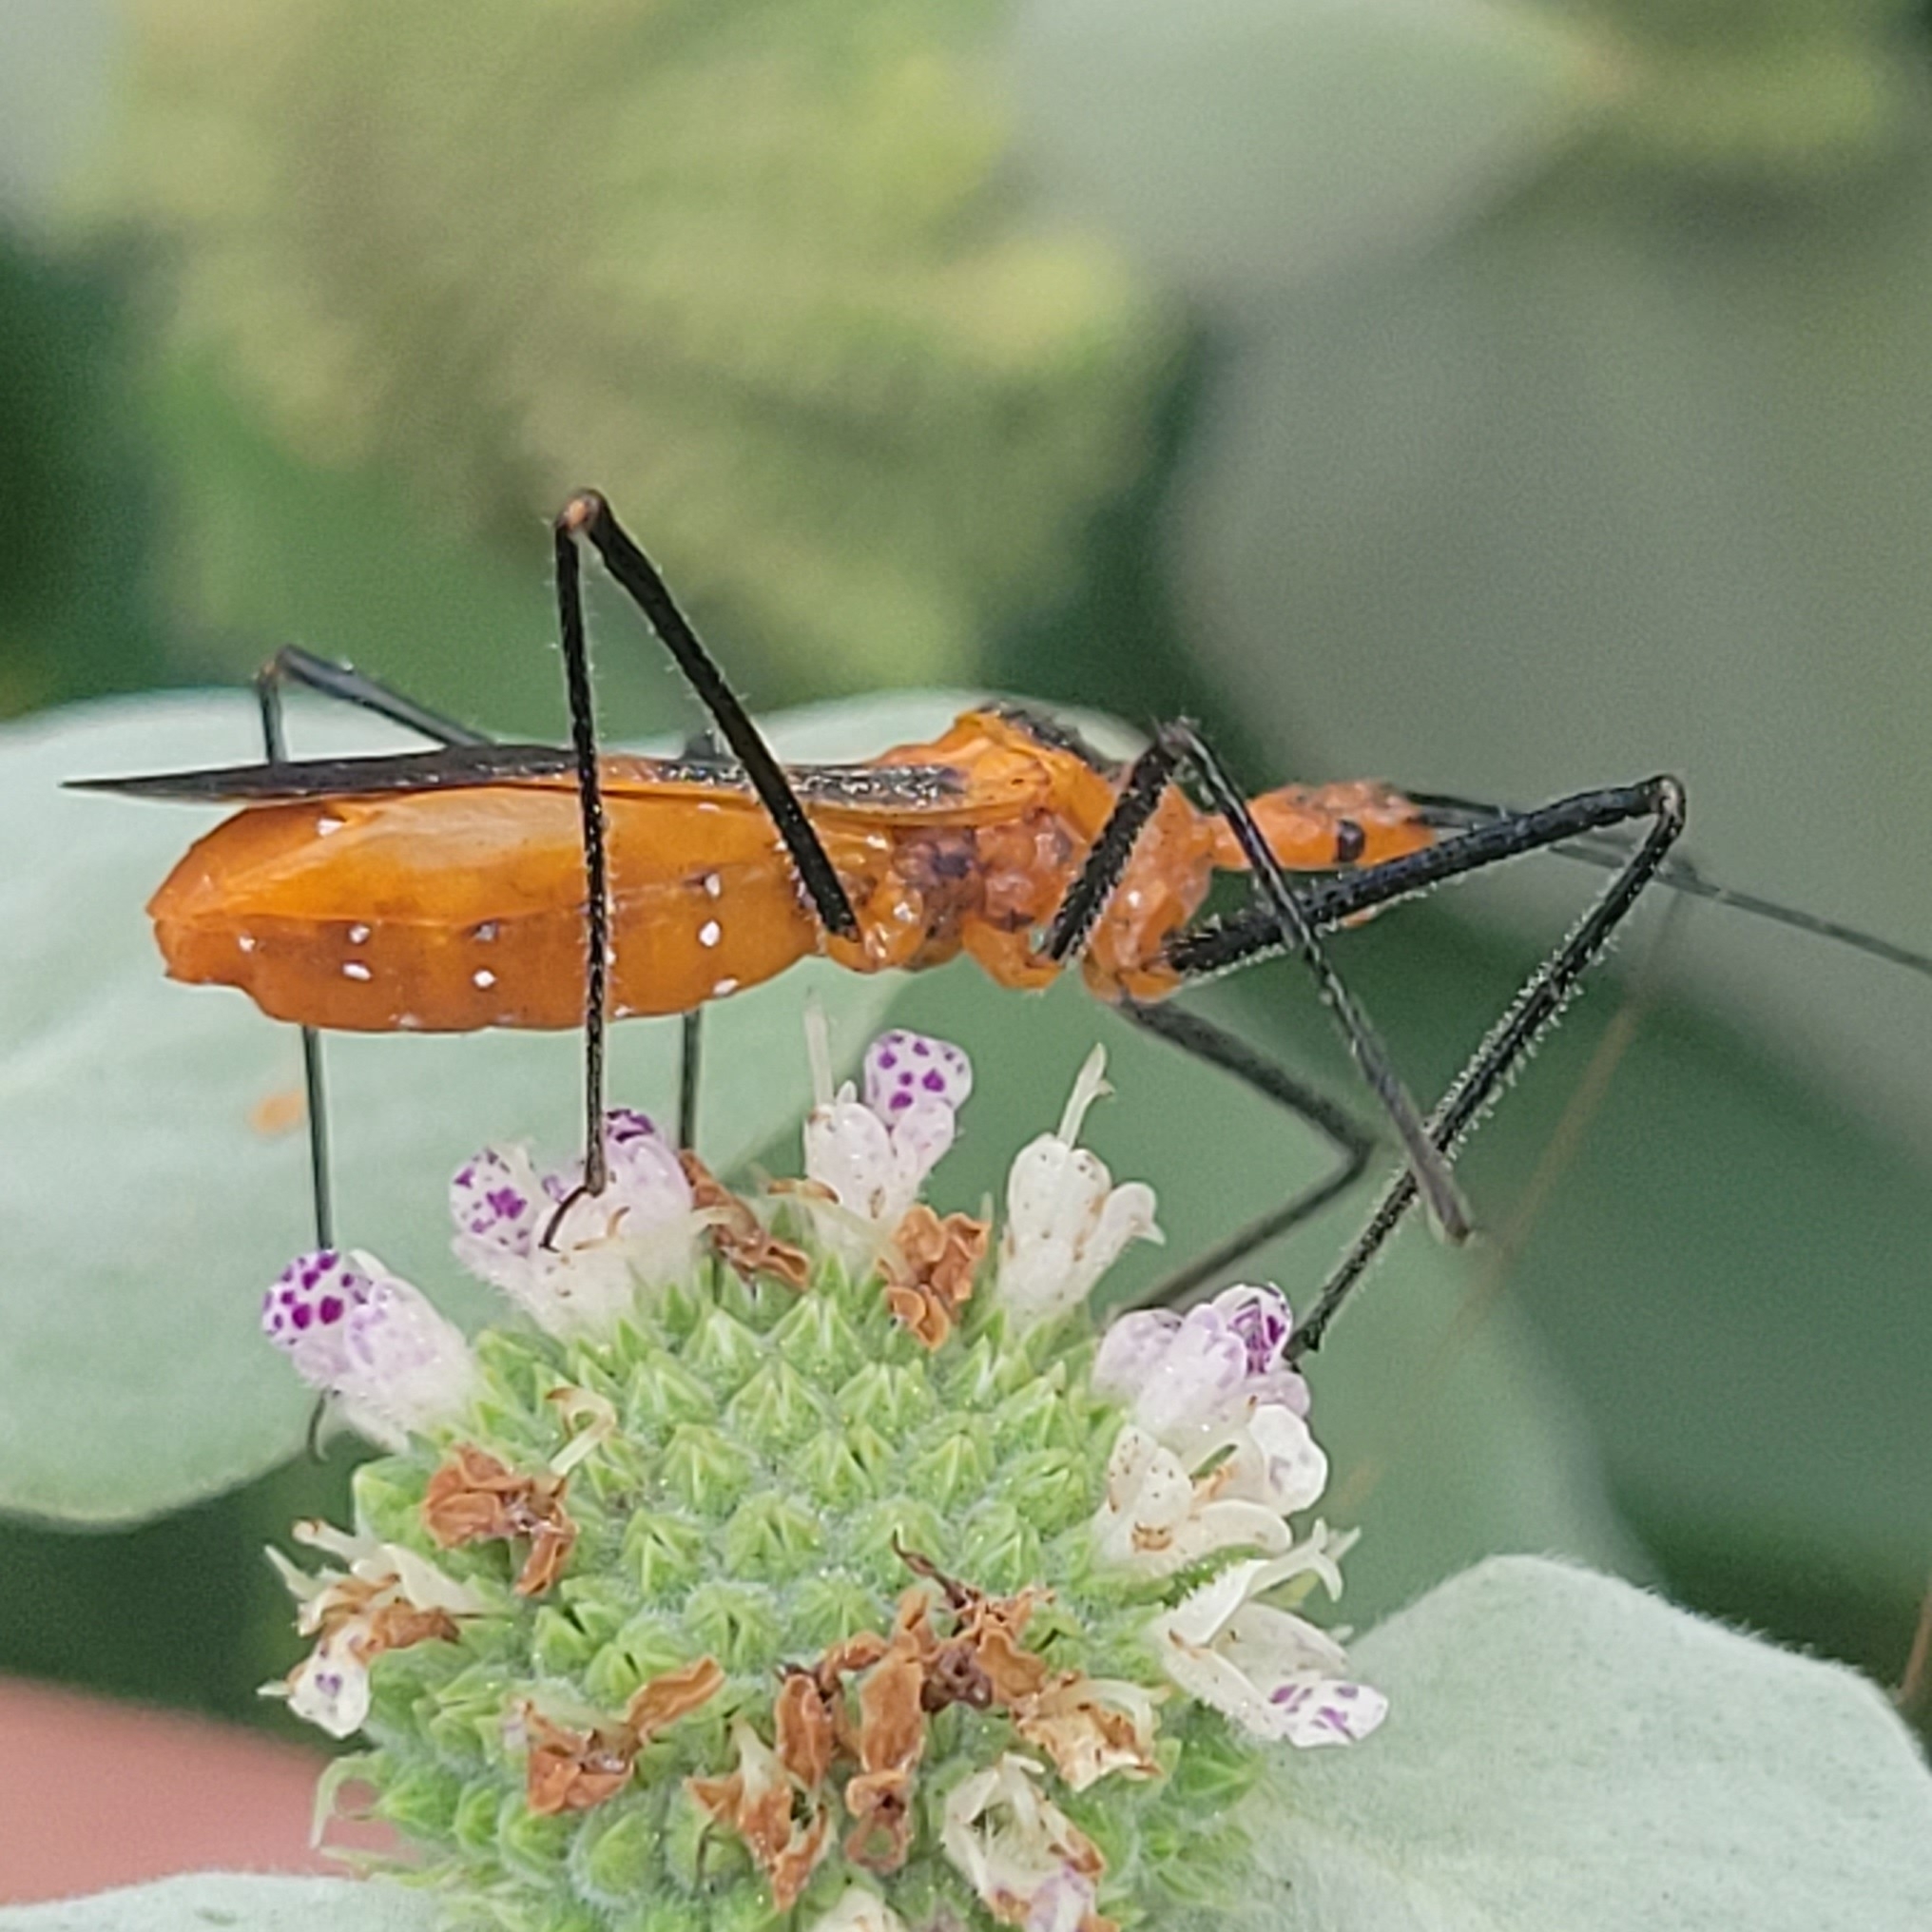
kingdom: Animalia
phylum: Arthropoda
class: Insecta
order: Hemiptera
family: Reduviidae
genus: Zelus
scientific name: Zelus longipes
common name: Milkweed assassin bug
